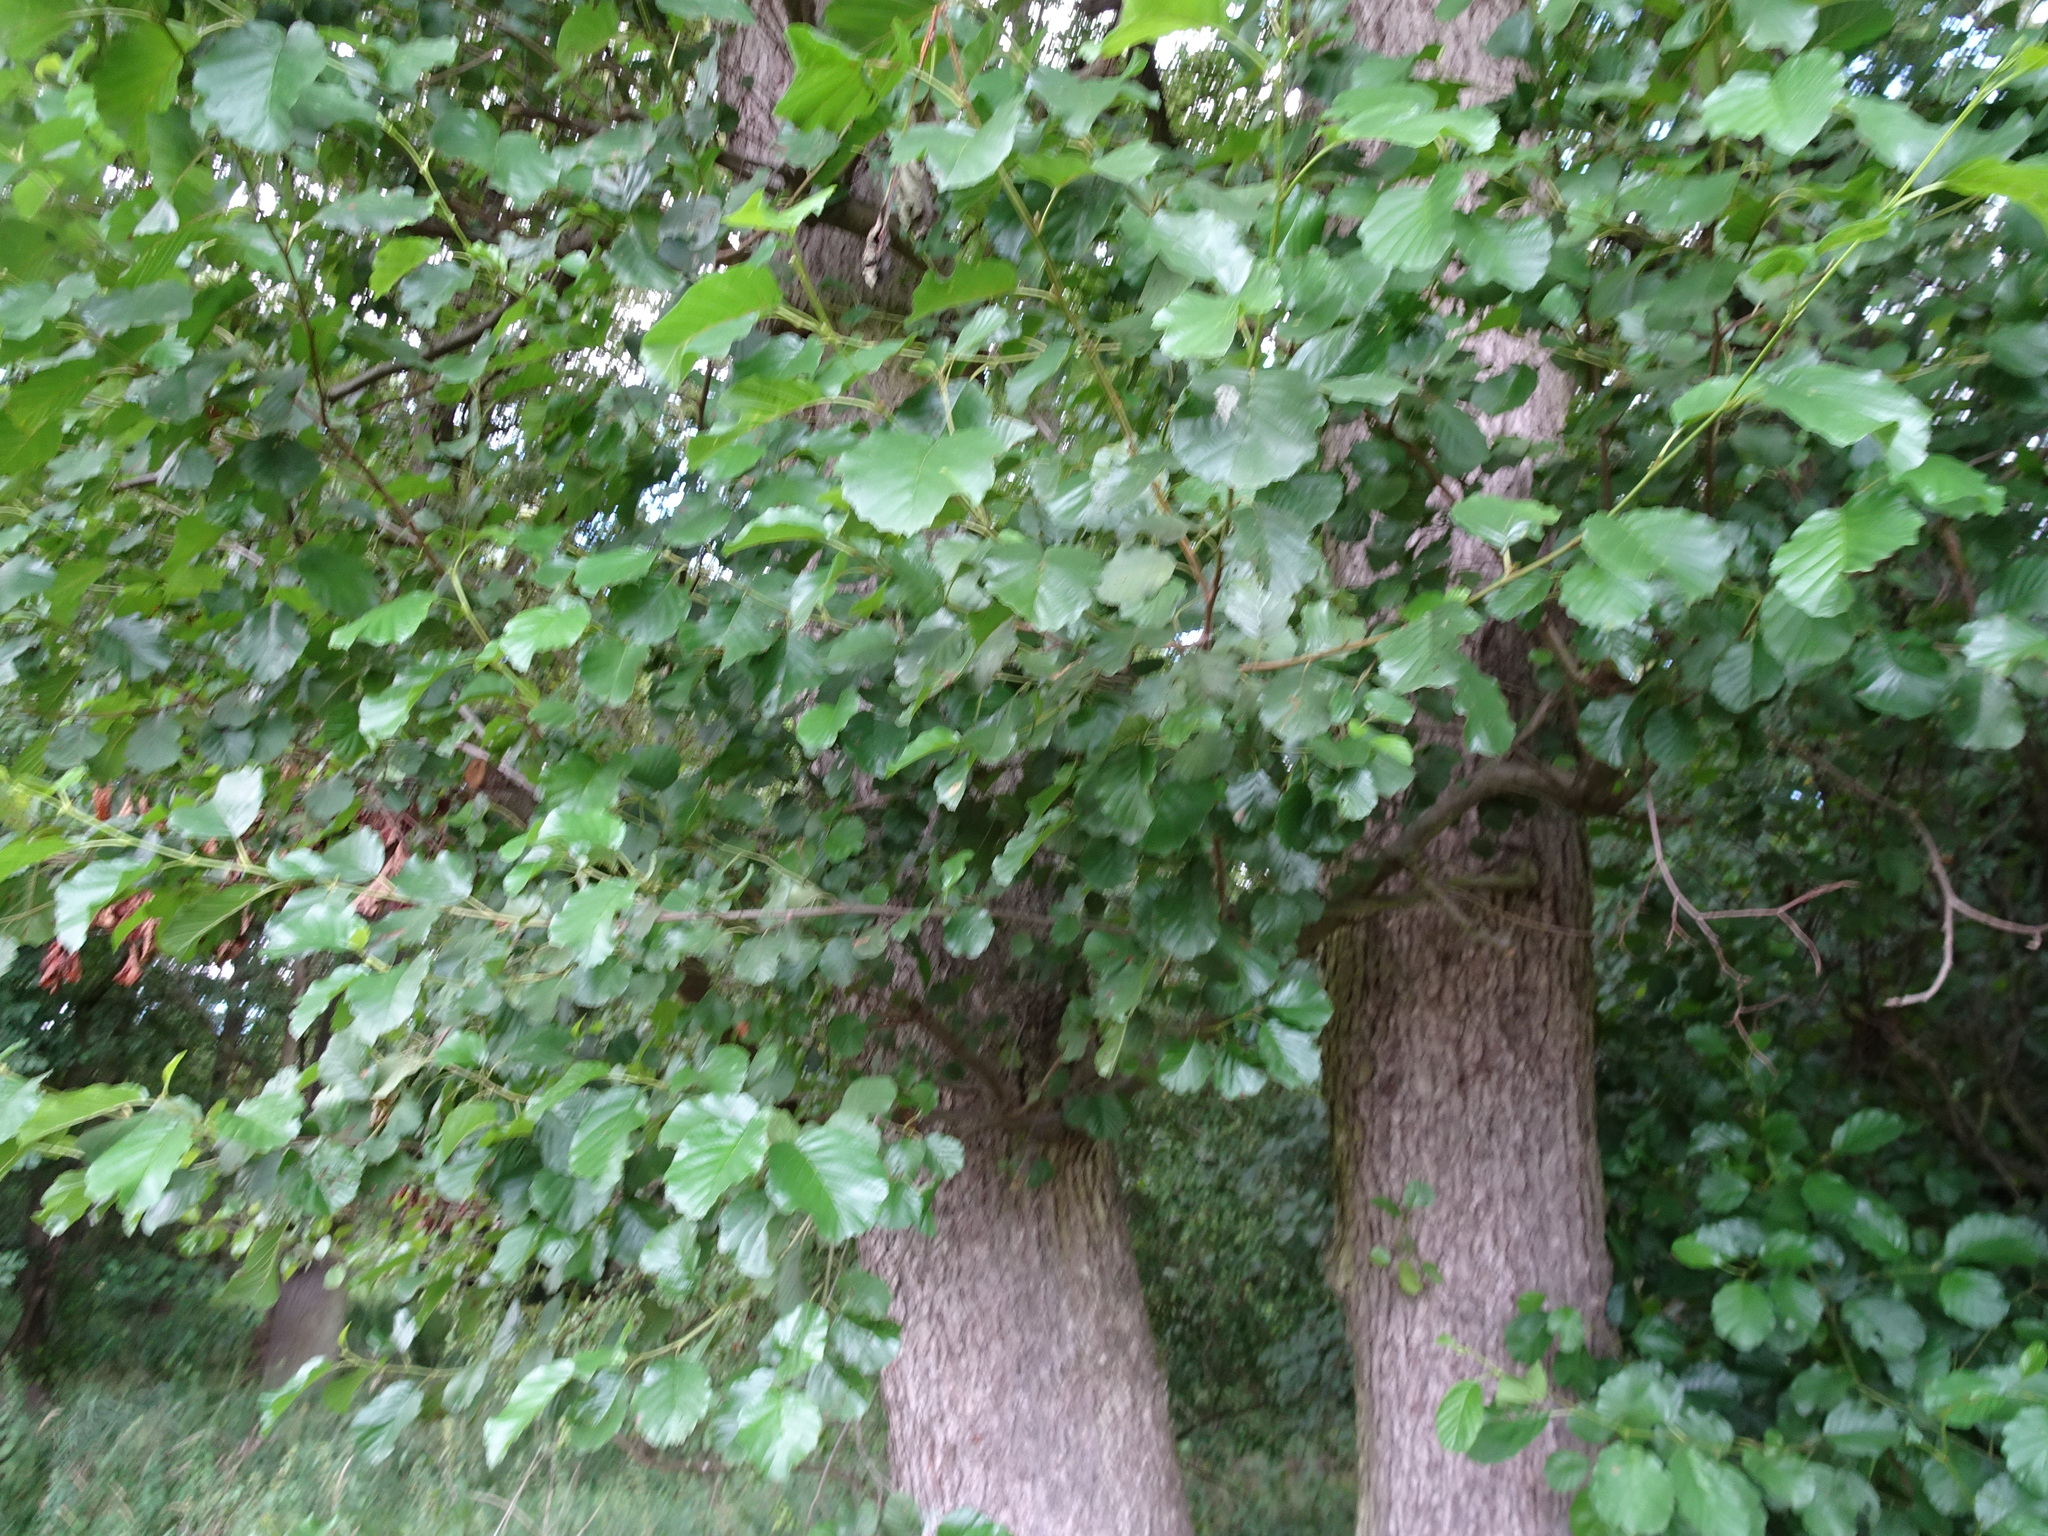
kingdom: Plantae
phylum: Tracheophyta
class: Magnoliopsida
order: Fagales
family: Betulaceae
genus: Alnus
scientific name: Alnus glutinosa
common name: Black alder
